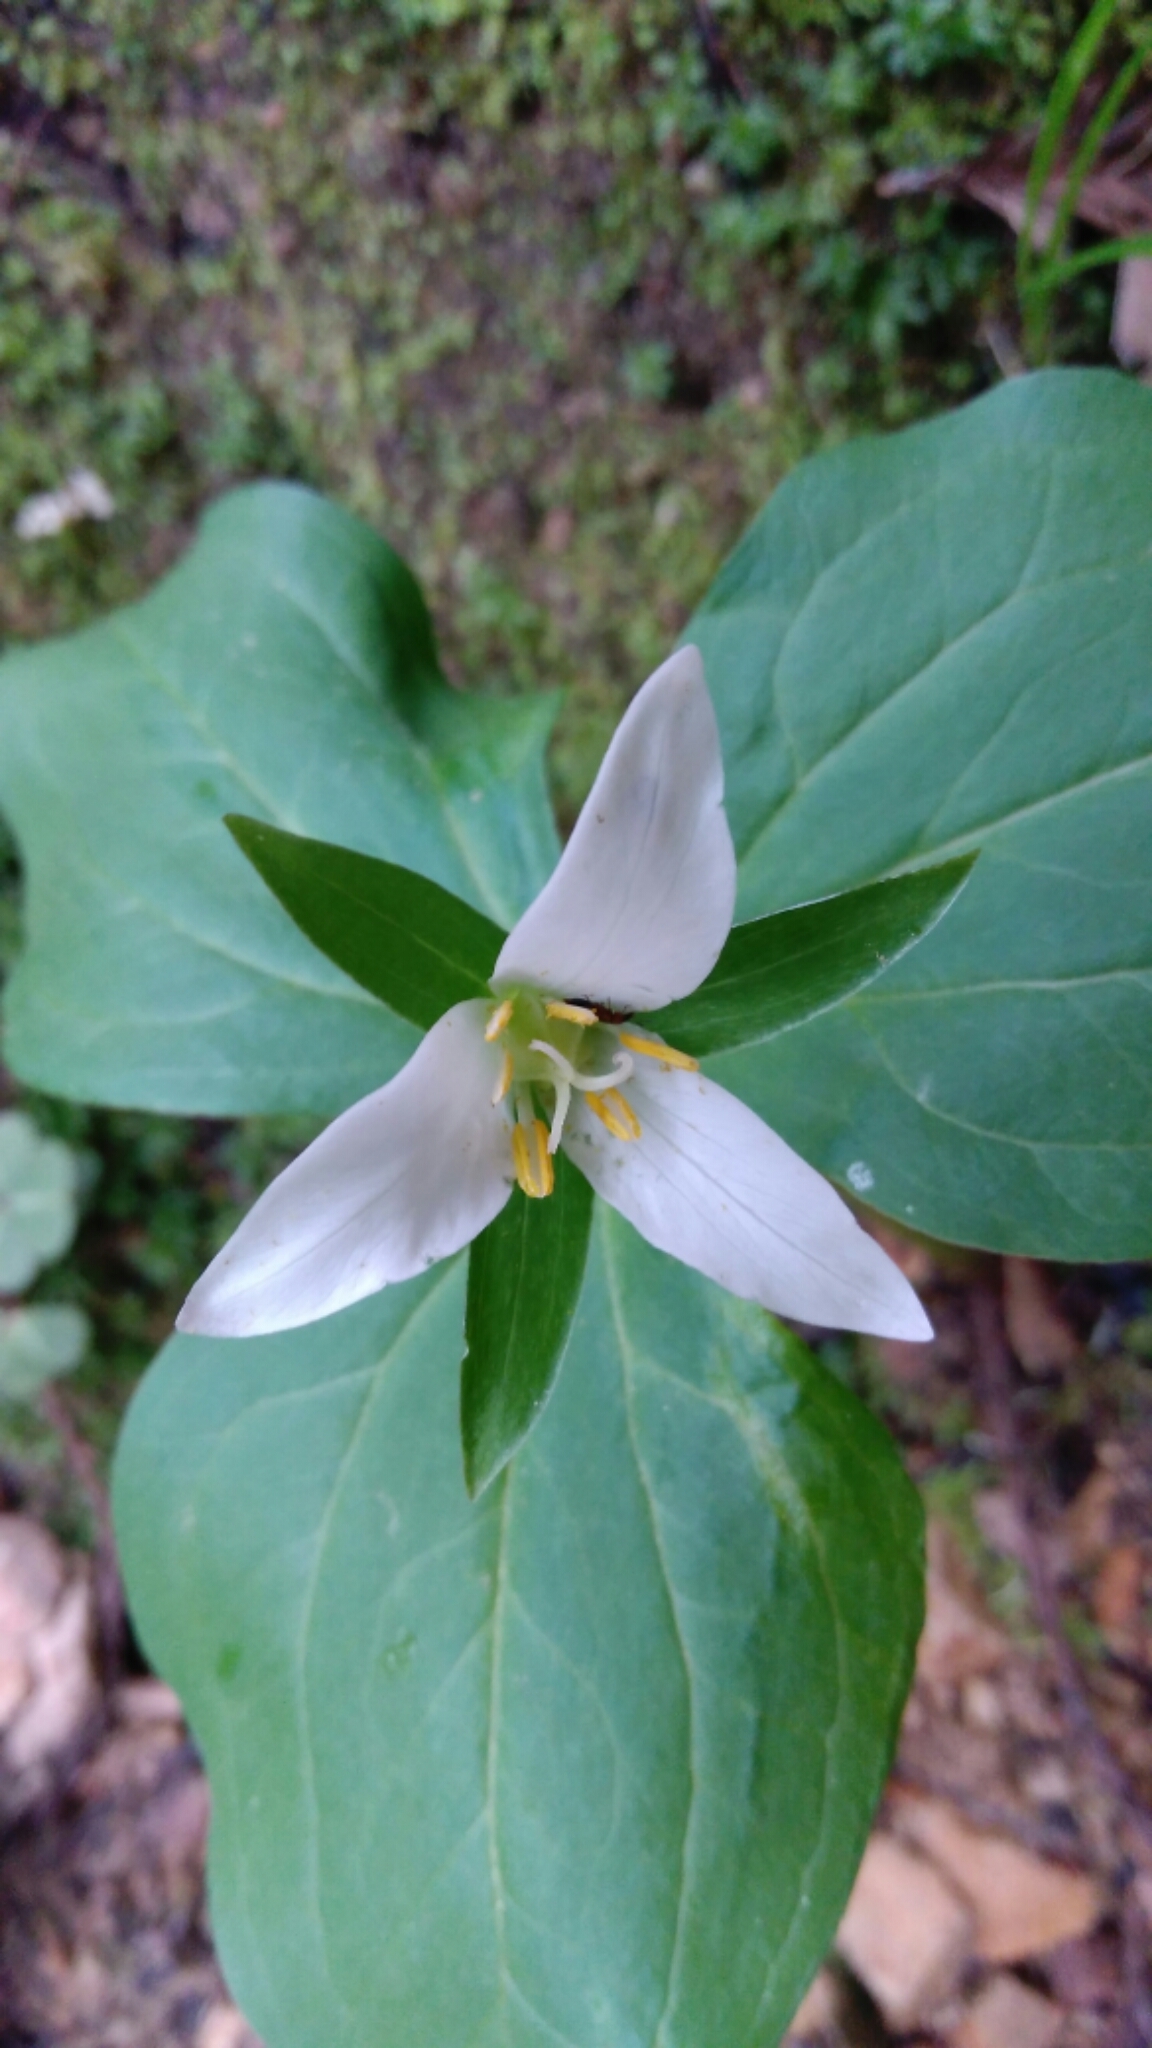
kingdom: Plantae
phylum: Tracheophyta
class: Liliopsida
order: Liliales
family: Melanthiaceae
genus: Trillium
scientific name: Trillium ovatum
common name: Pacific trillium
